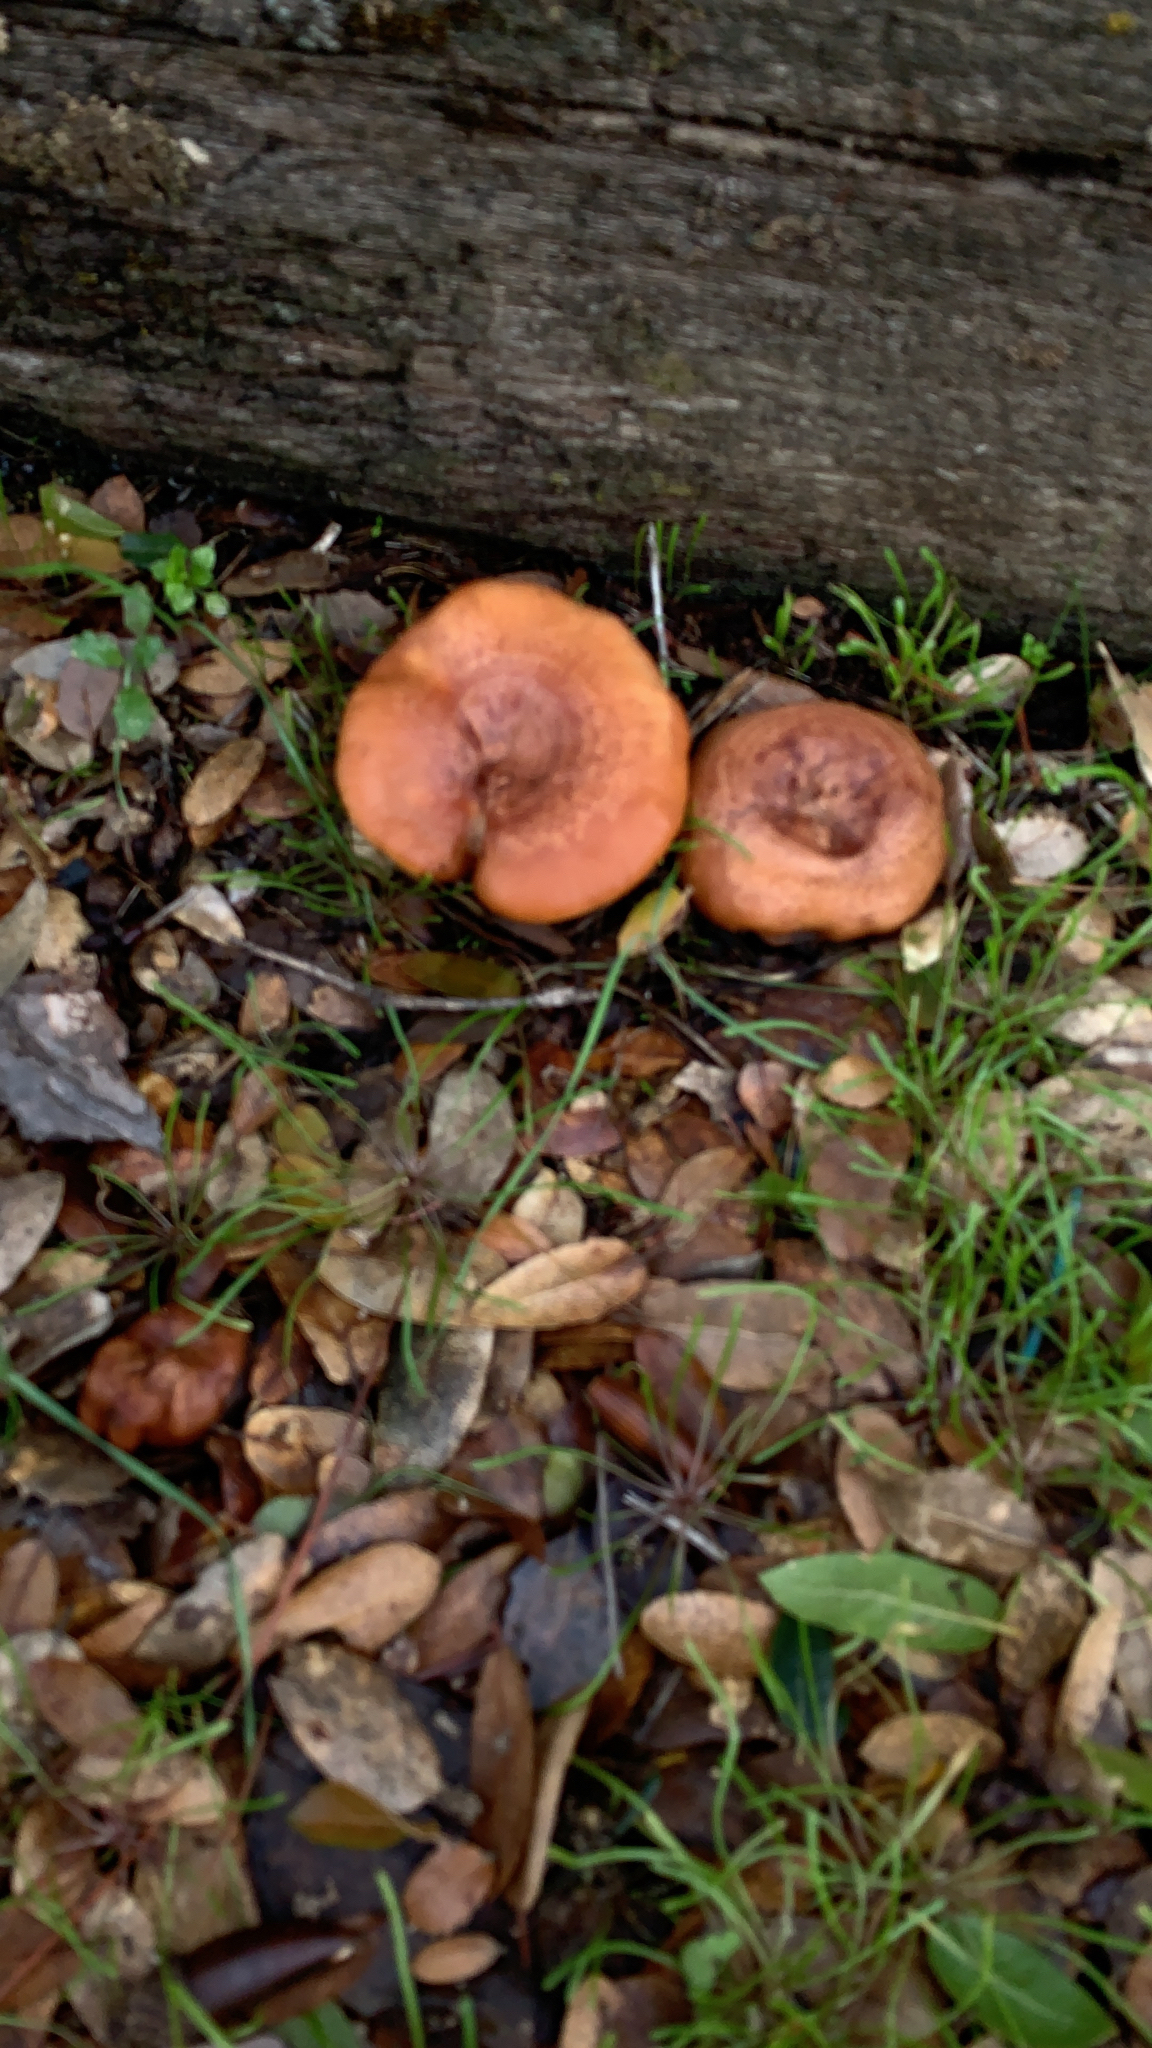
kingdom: Fungi
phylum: Basidiomycota
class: Agaricomycetes
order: Russulales
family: Russulaceae
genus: Lactarius
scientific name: Lactarius xanthogalactus
